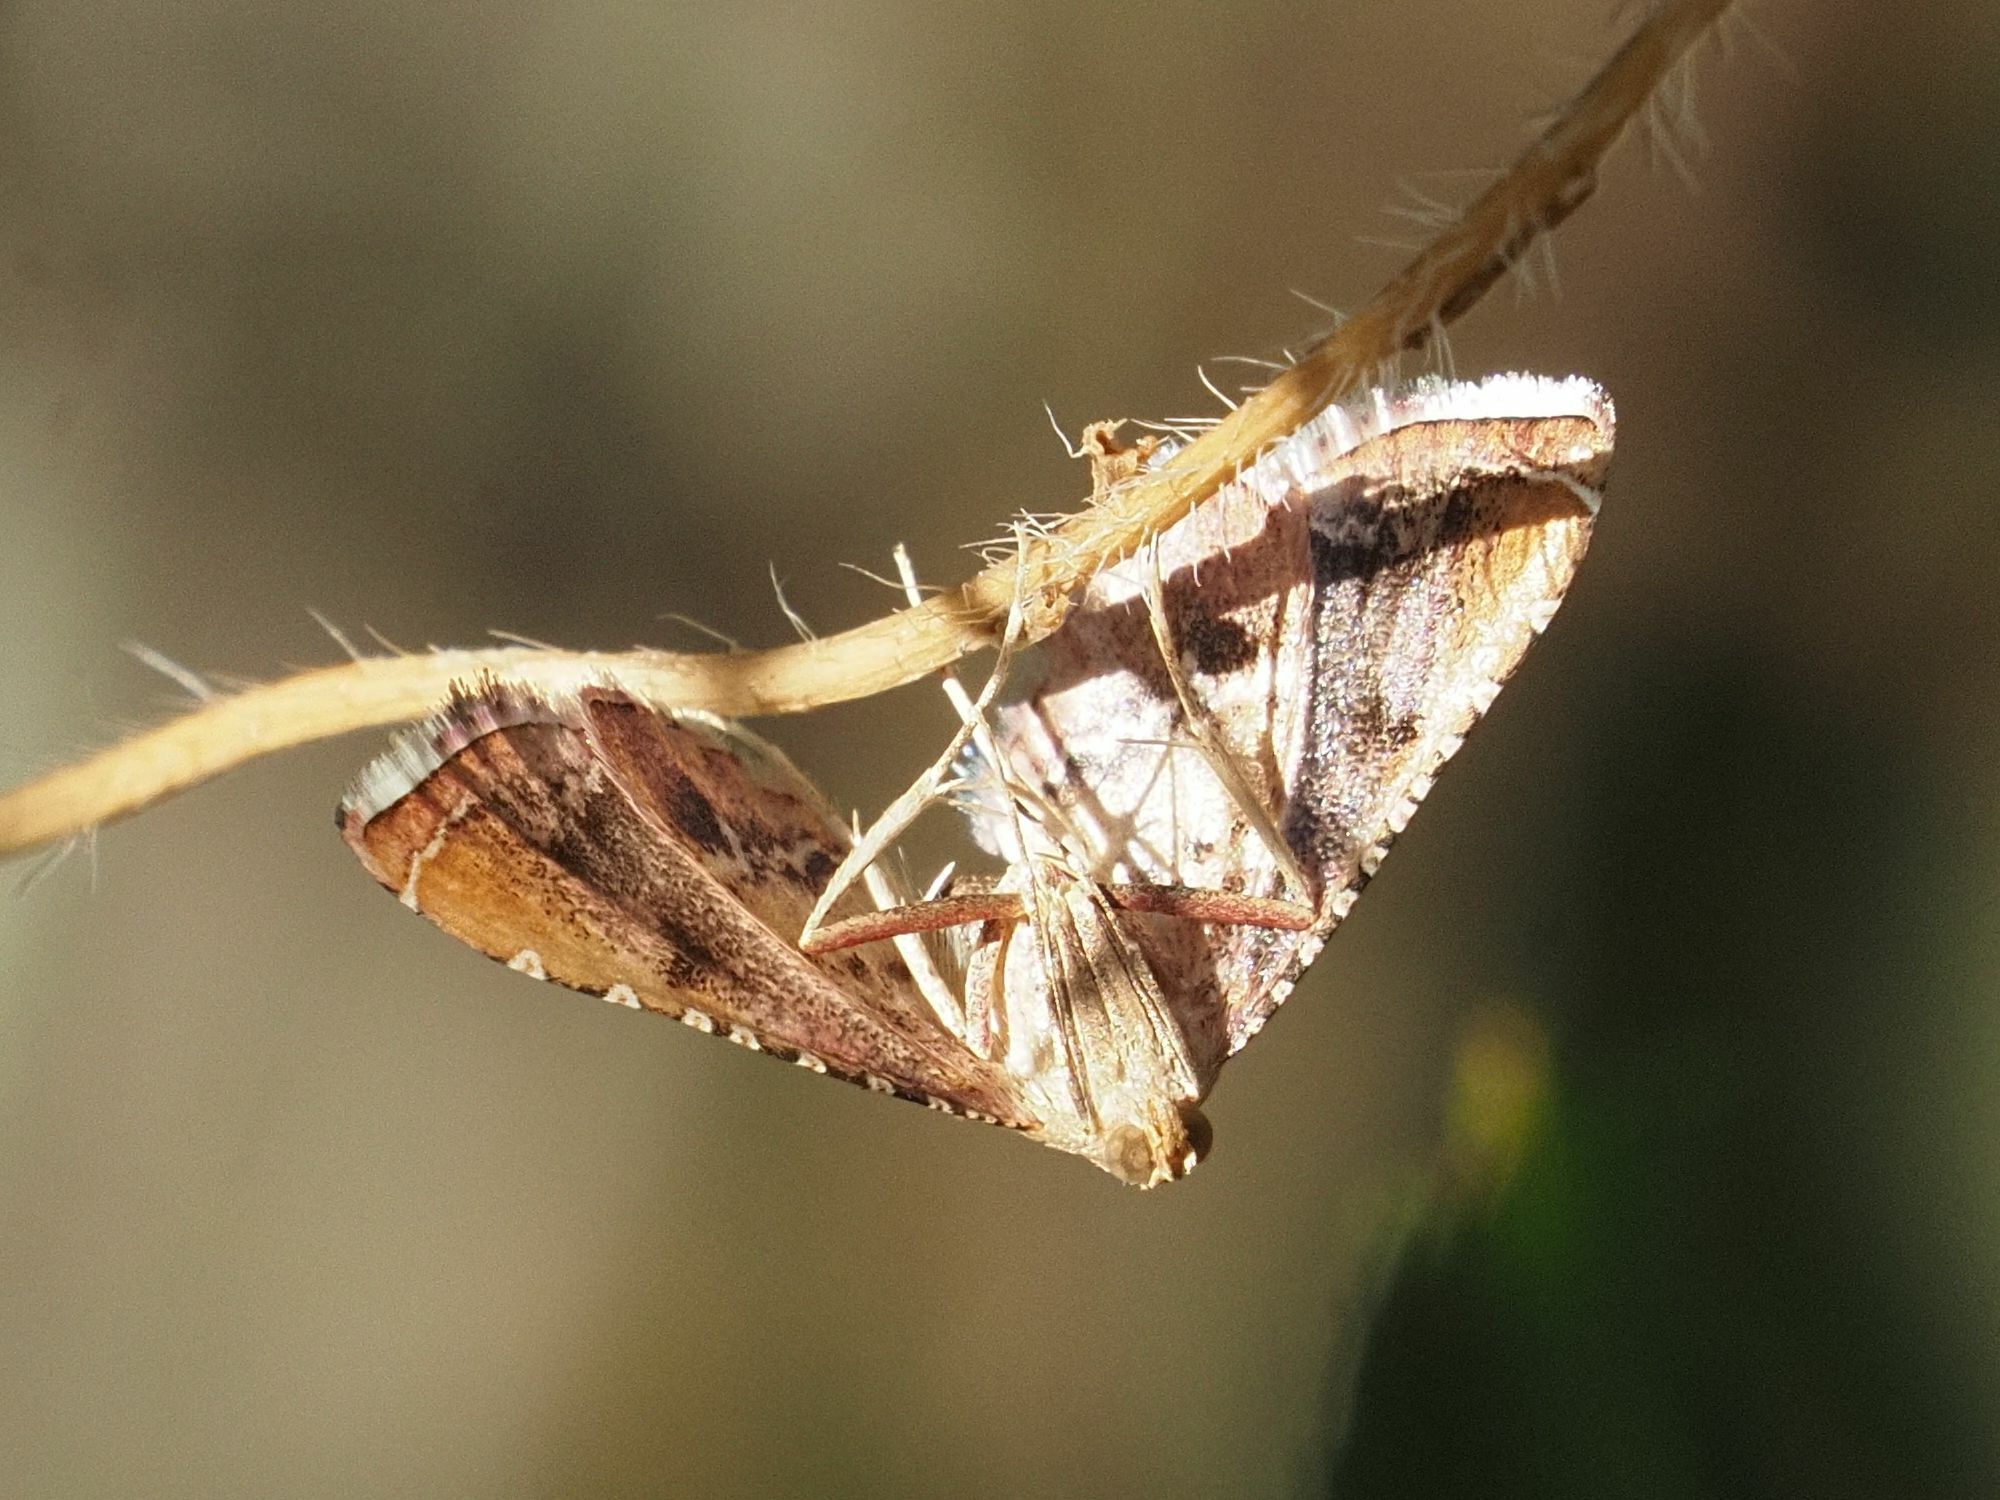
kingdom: Animalia
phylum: Arthropoda
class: Insecta
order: Lepidoptera
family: Pyralidae
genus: Endotricha
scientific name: Endotricha flammealis
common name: Rosy tabby
